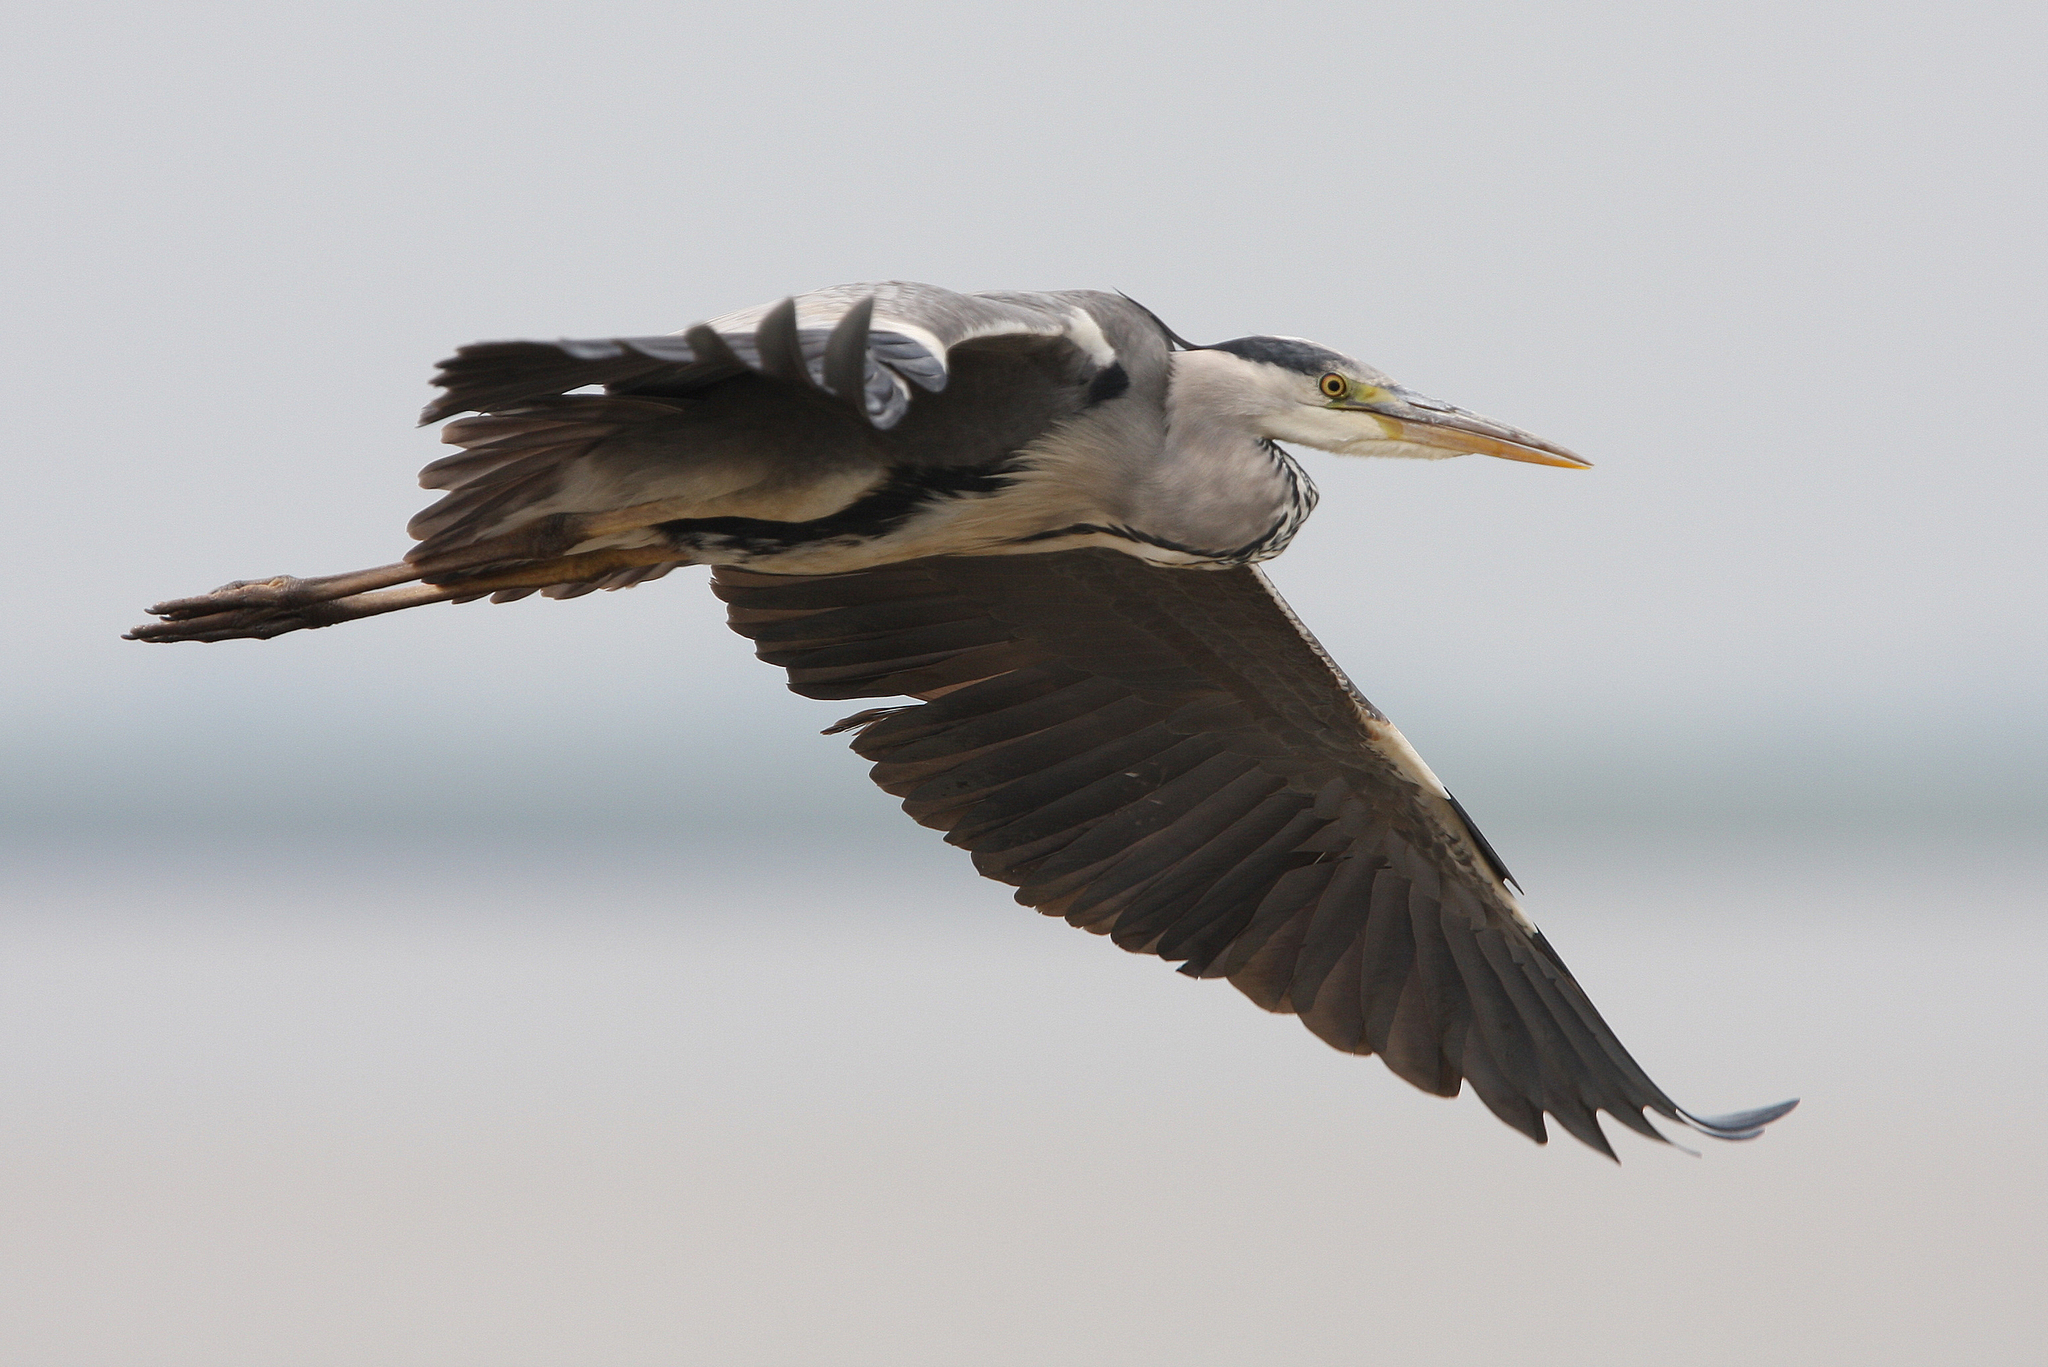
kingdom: Animalia
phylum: Chordata
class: Aves
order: Pelecaniformes
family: Ardeidae
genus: Ardea
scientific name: Ardea cinerea
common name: Grey heron
